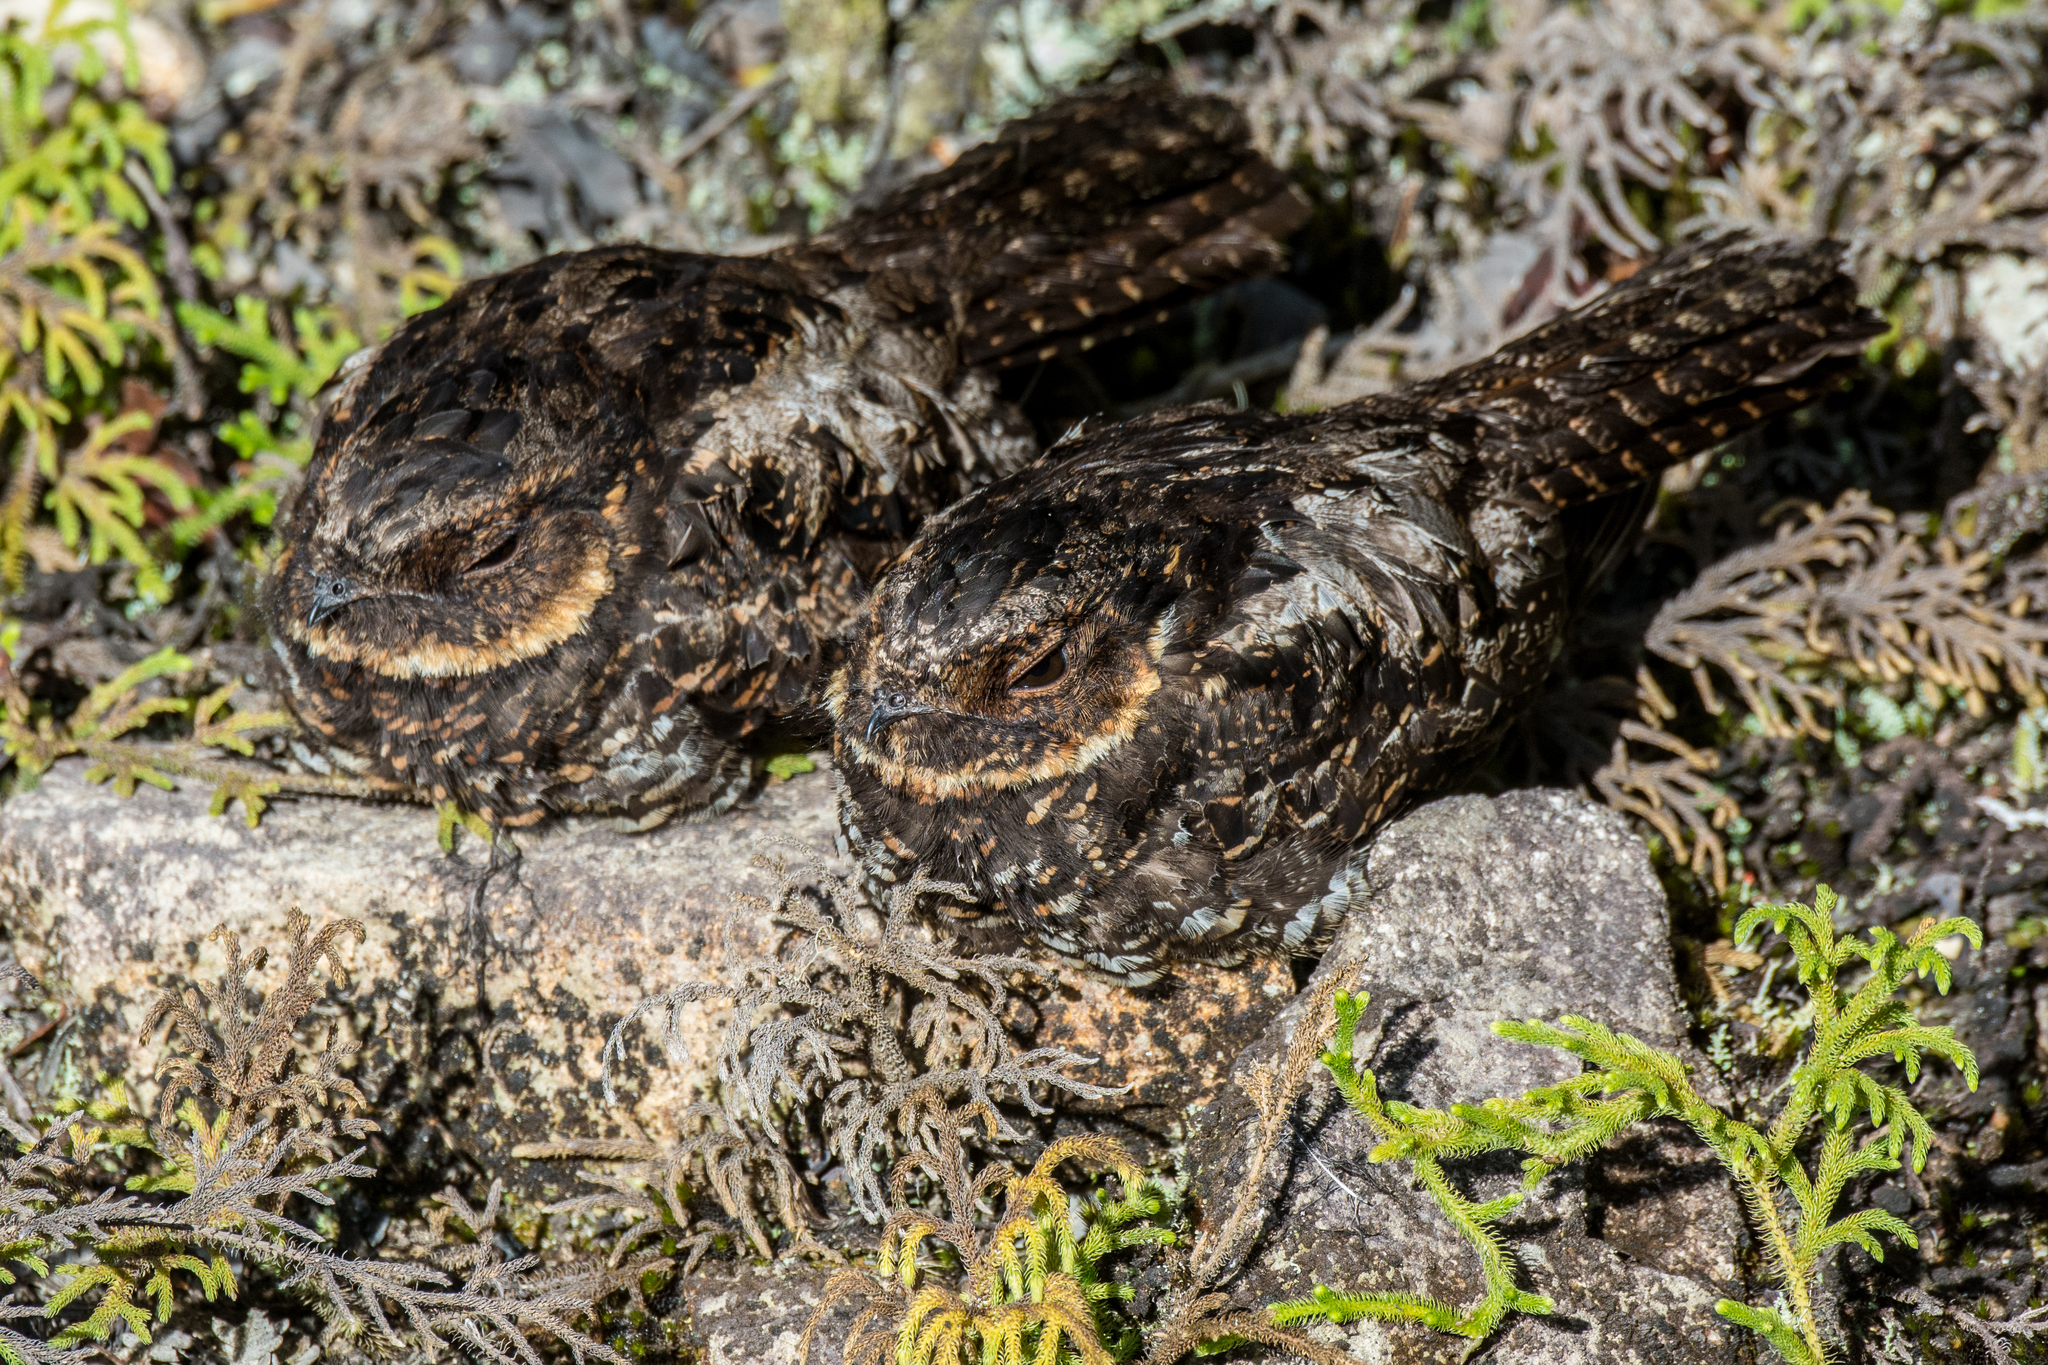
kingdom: Animalia
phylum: Chordata
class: Aves
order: Caprimulgiformes
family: Caprimulgidae
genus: Eurostopodus
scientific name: Eurostopodus diabolicus
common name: Satanic nightjar
